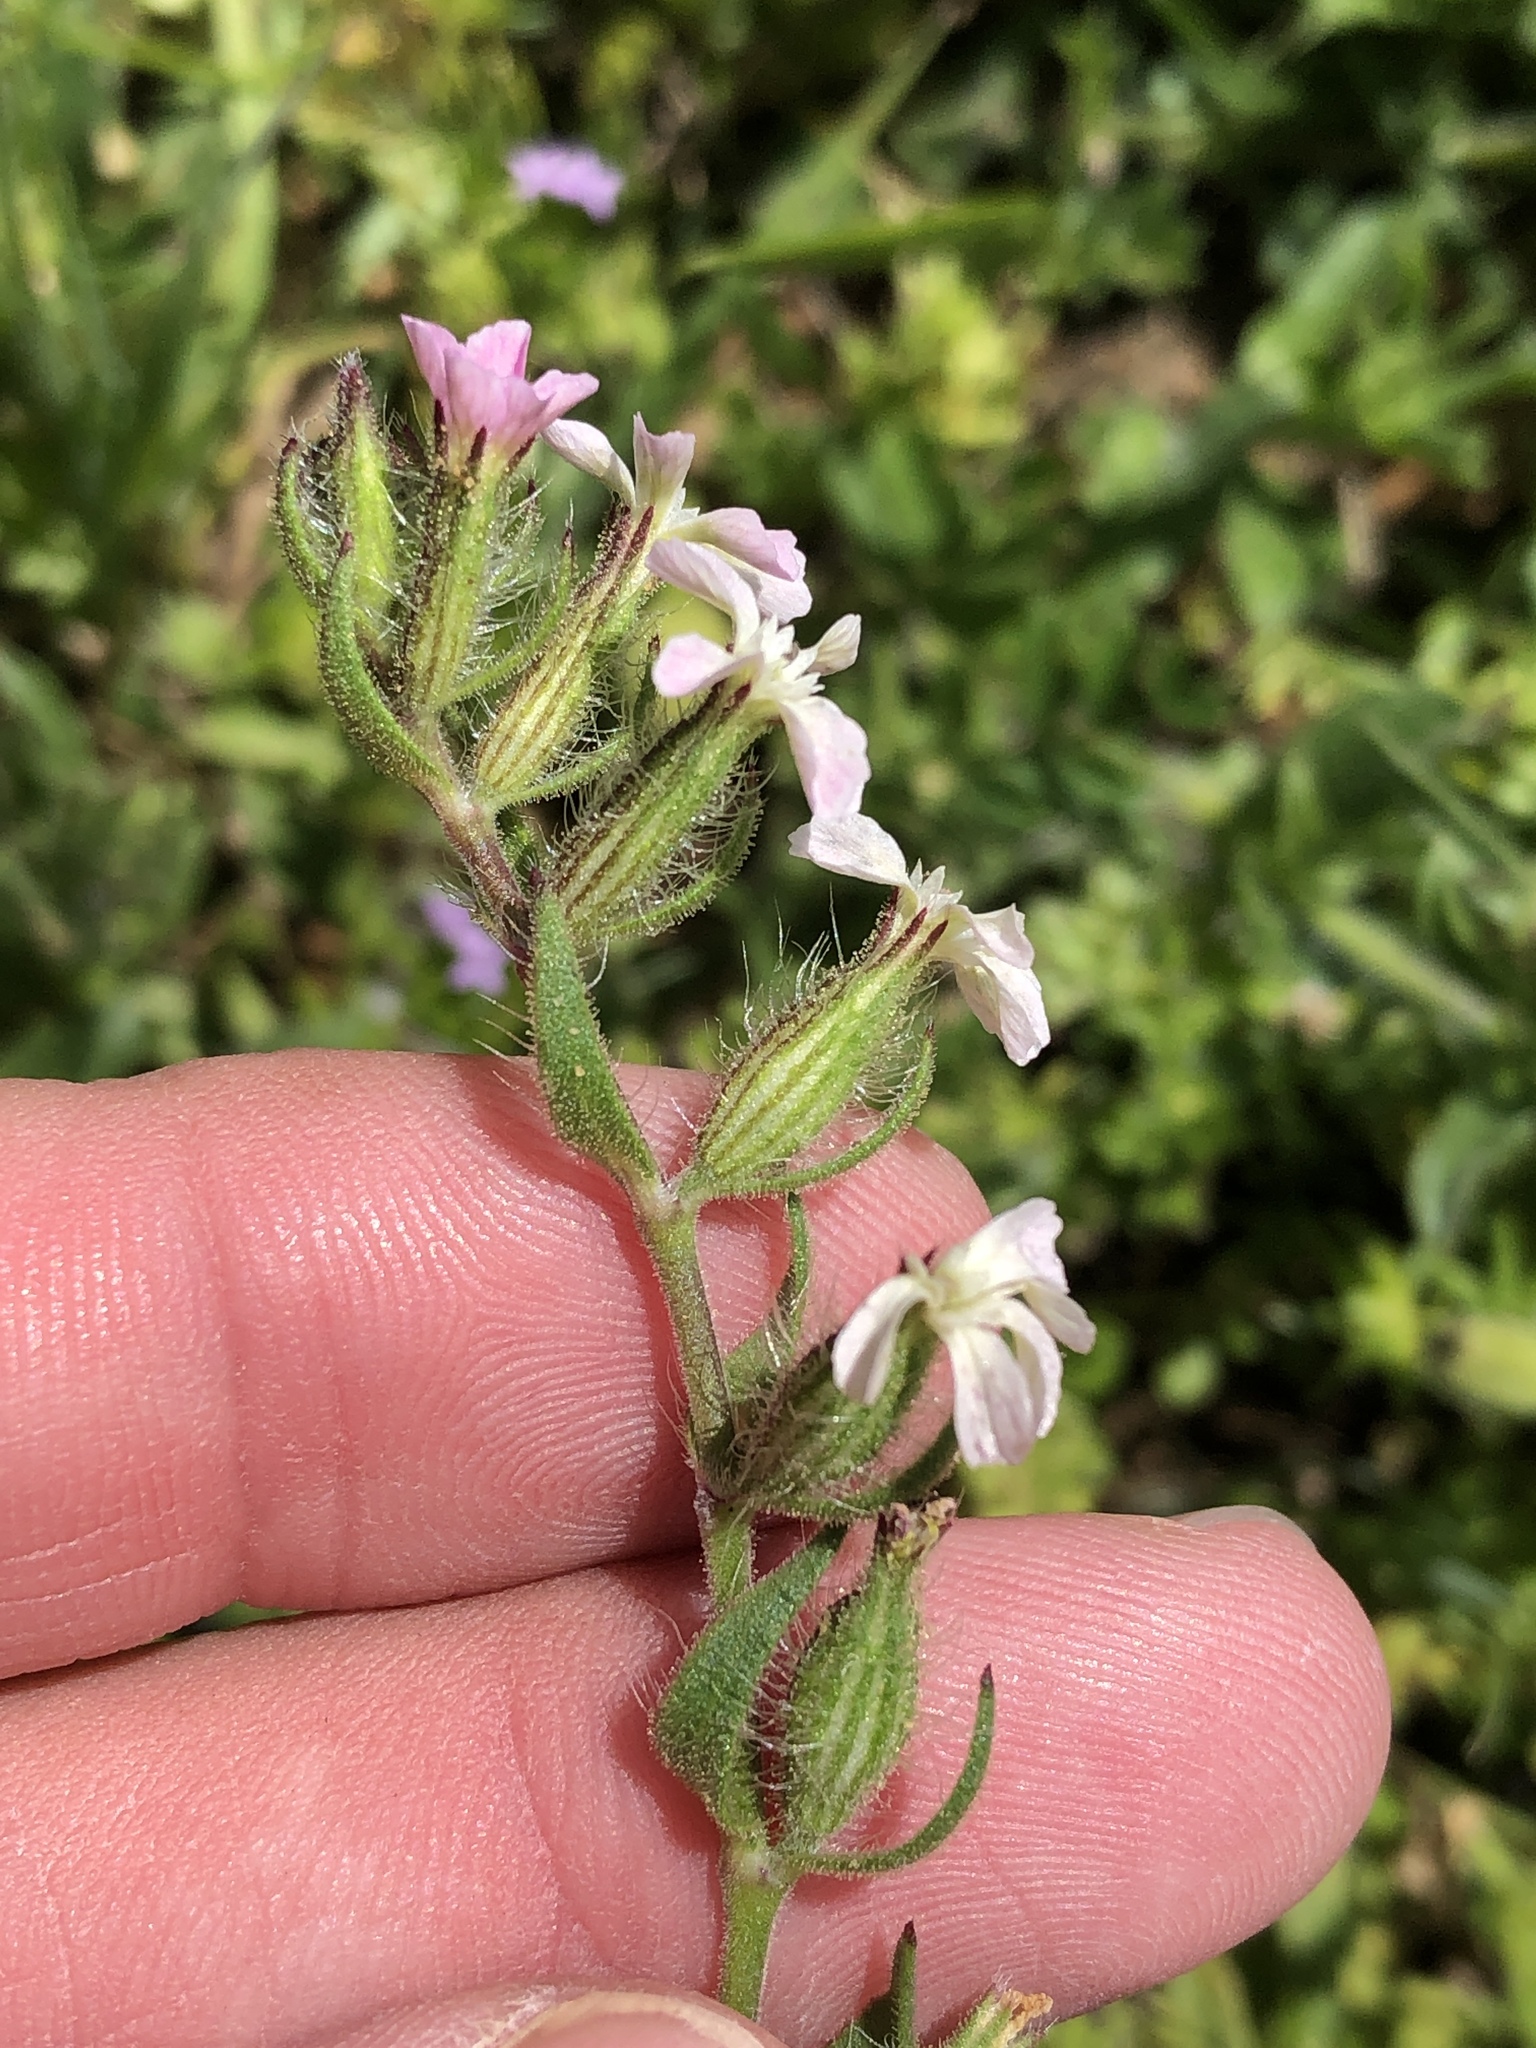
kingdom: Plantae
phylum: Tracheophyta
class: Magnoliopsida
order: Caryophyllales
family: Caryophyllaceae
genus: Silene
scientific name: Silene gallica
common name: Small-flowered catchfly
